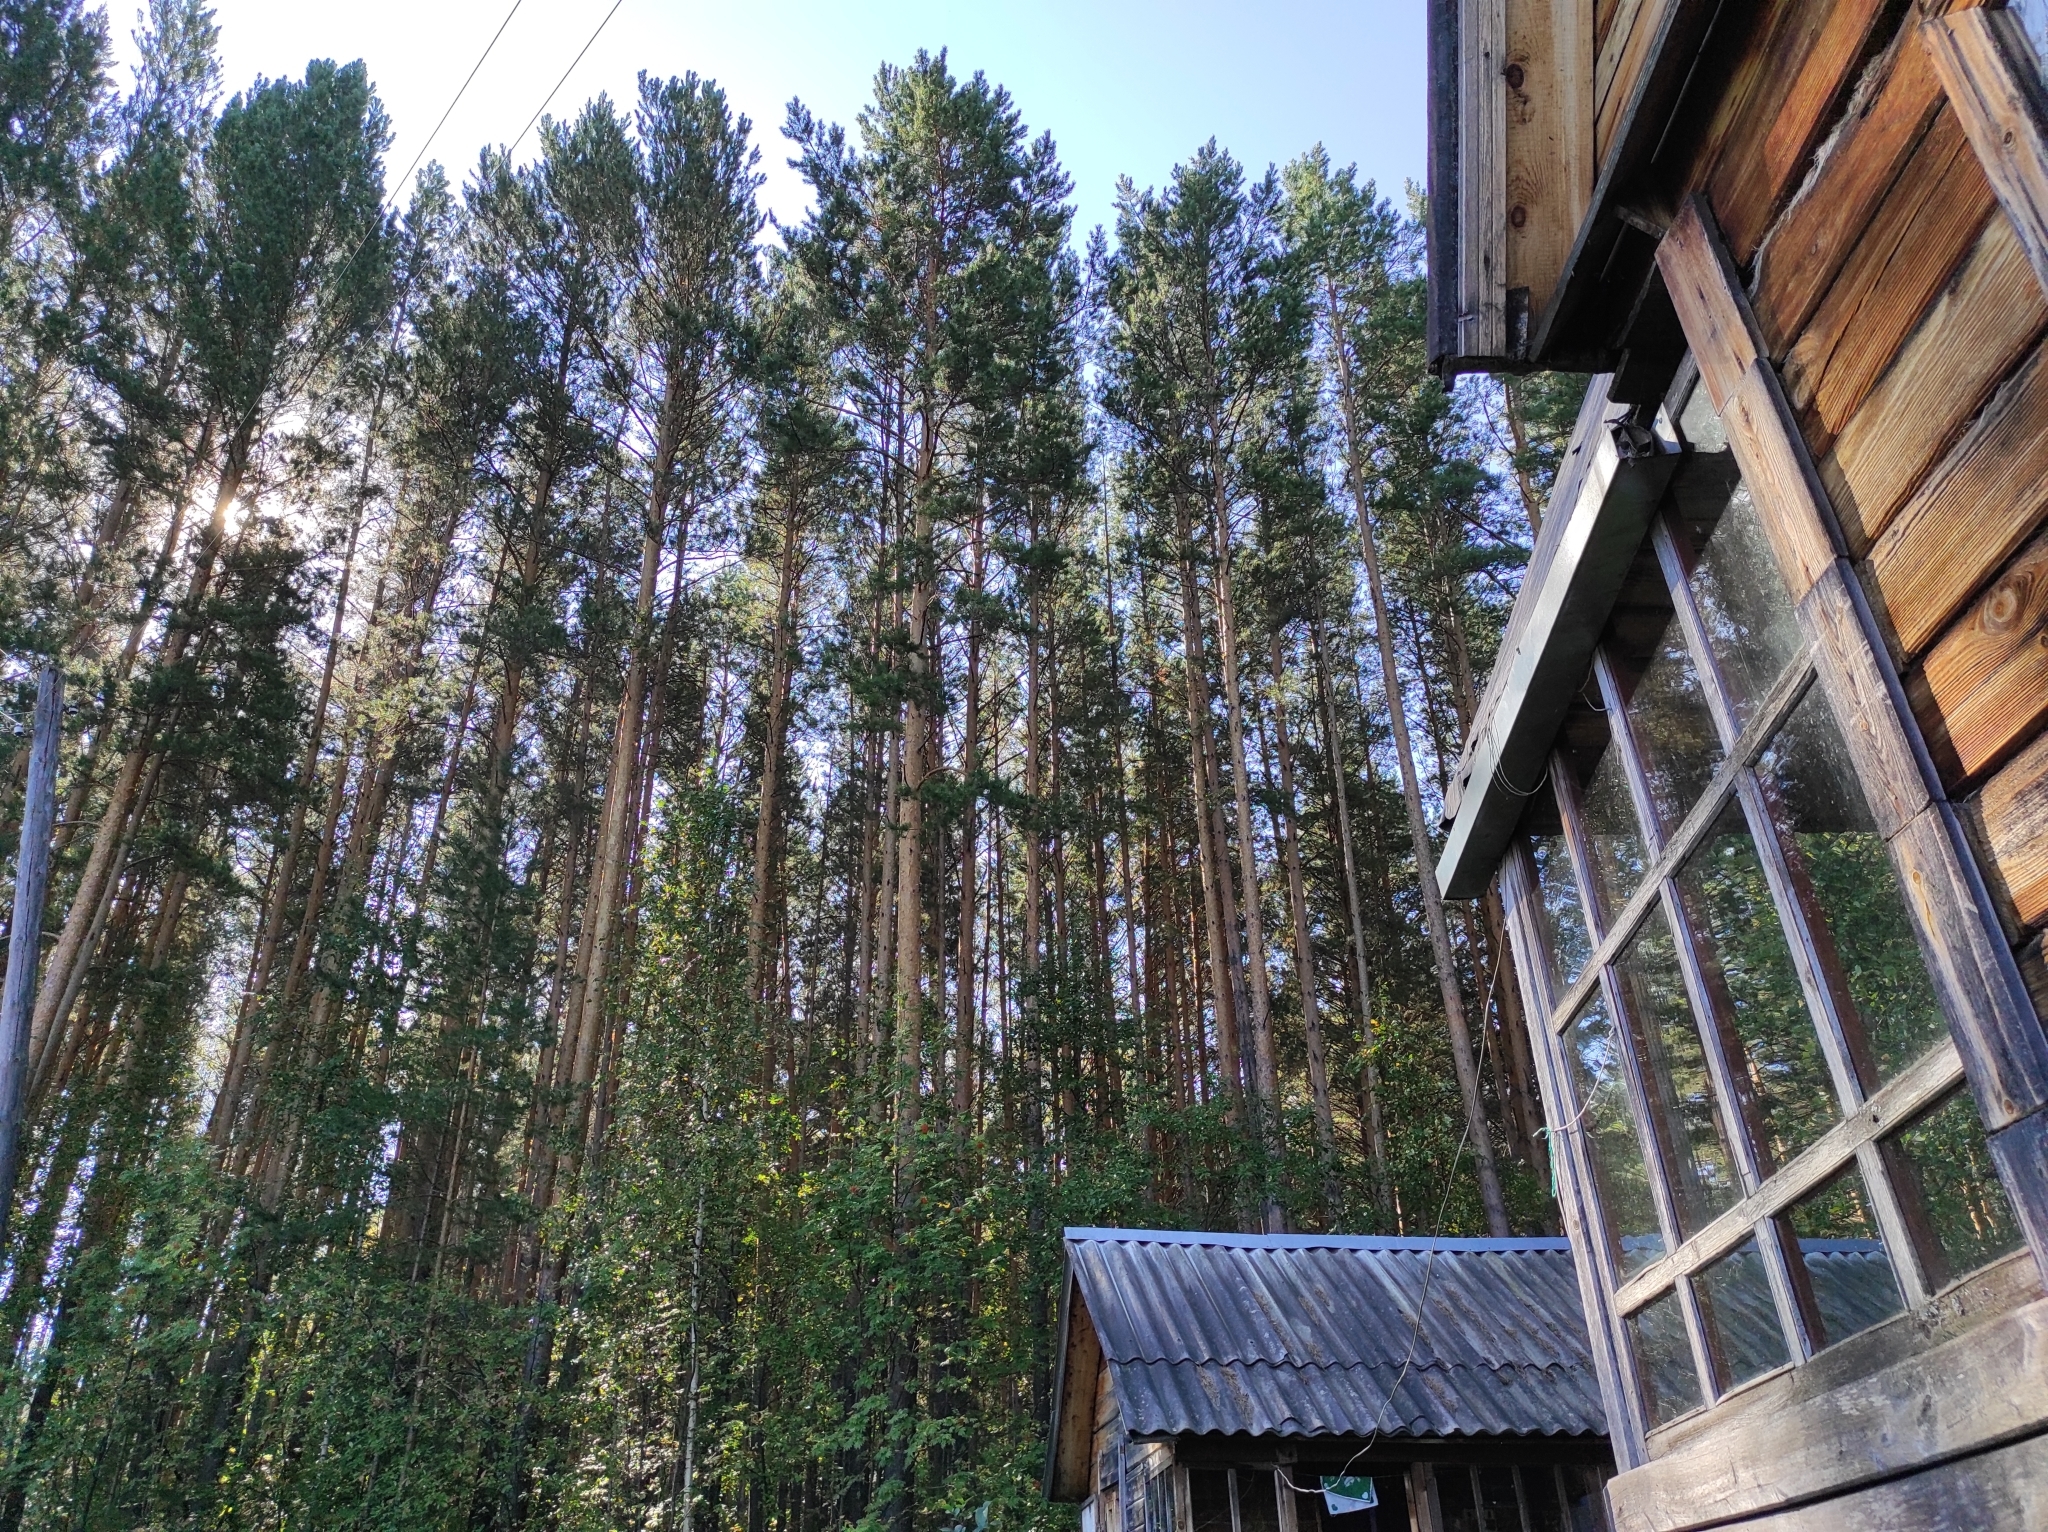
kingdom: Plantae
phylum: Tracheophyta
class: Pinopsida
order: Pinales
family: Pinaceae
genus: Pinus
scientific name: Pinus sylvestris
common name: Scots pine
